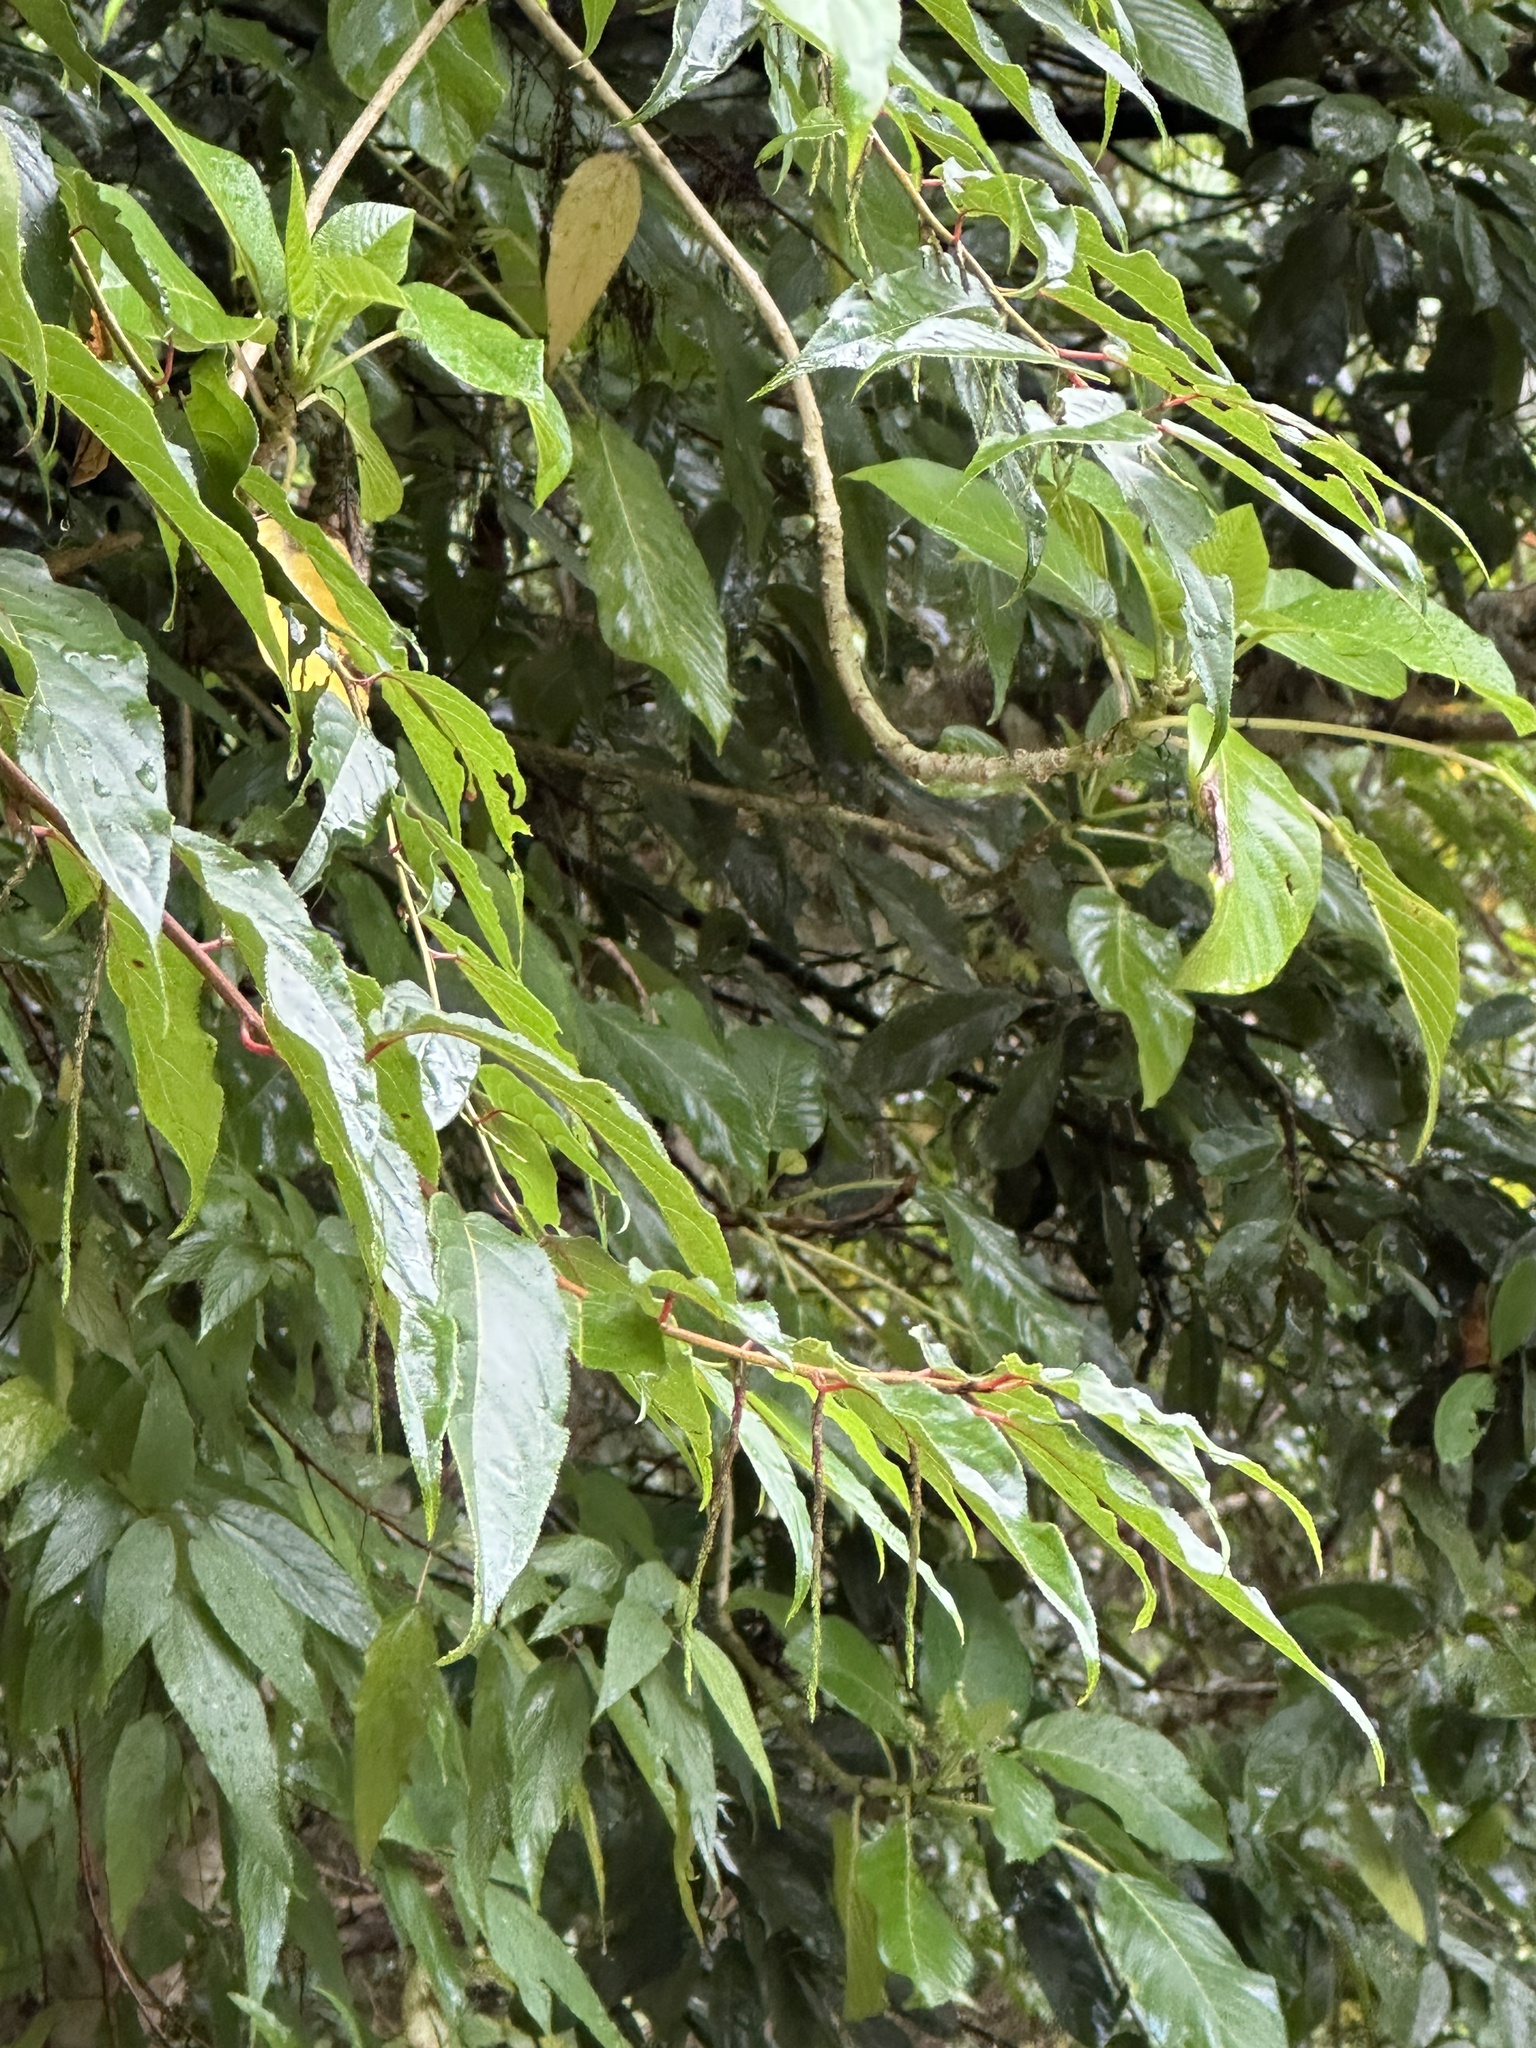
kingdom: Plantae
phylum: Tracheophyta
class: Magnoliopsida
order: Crossosomatales
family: Stachyuraceae
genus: Stachyurus
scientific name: Stachyurus himalaicus
